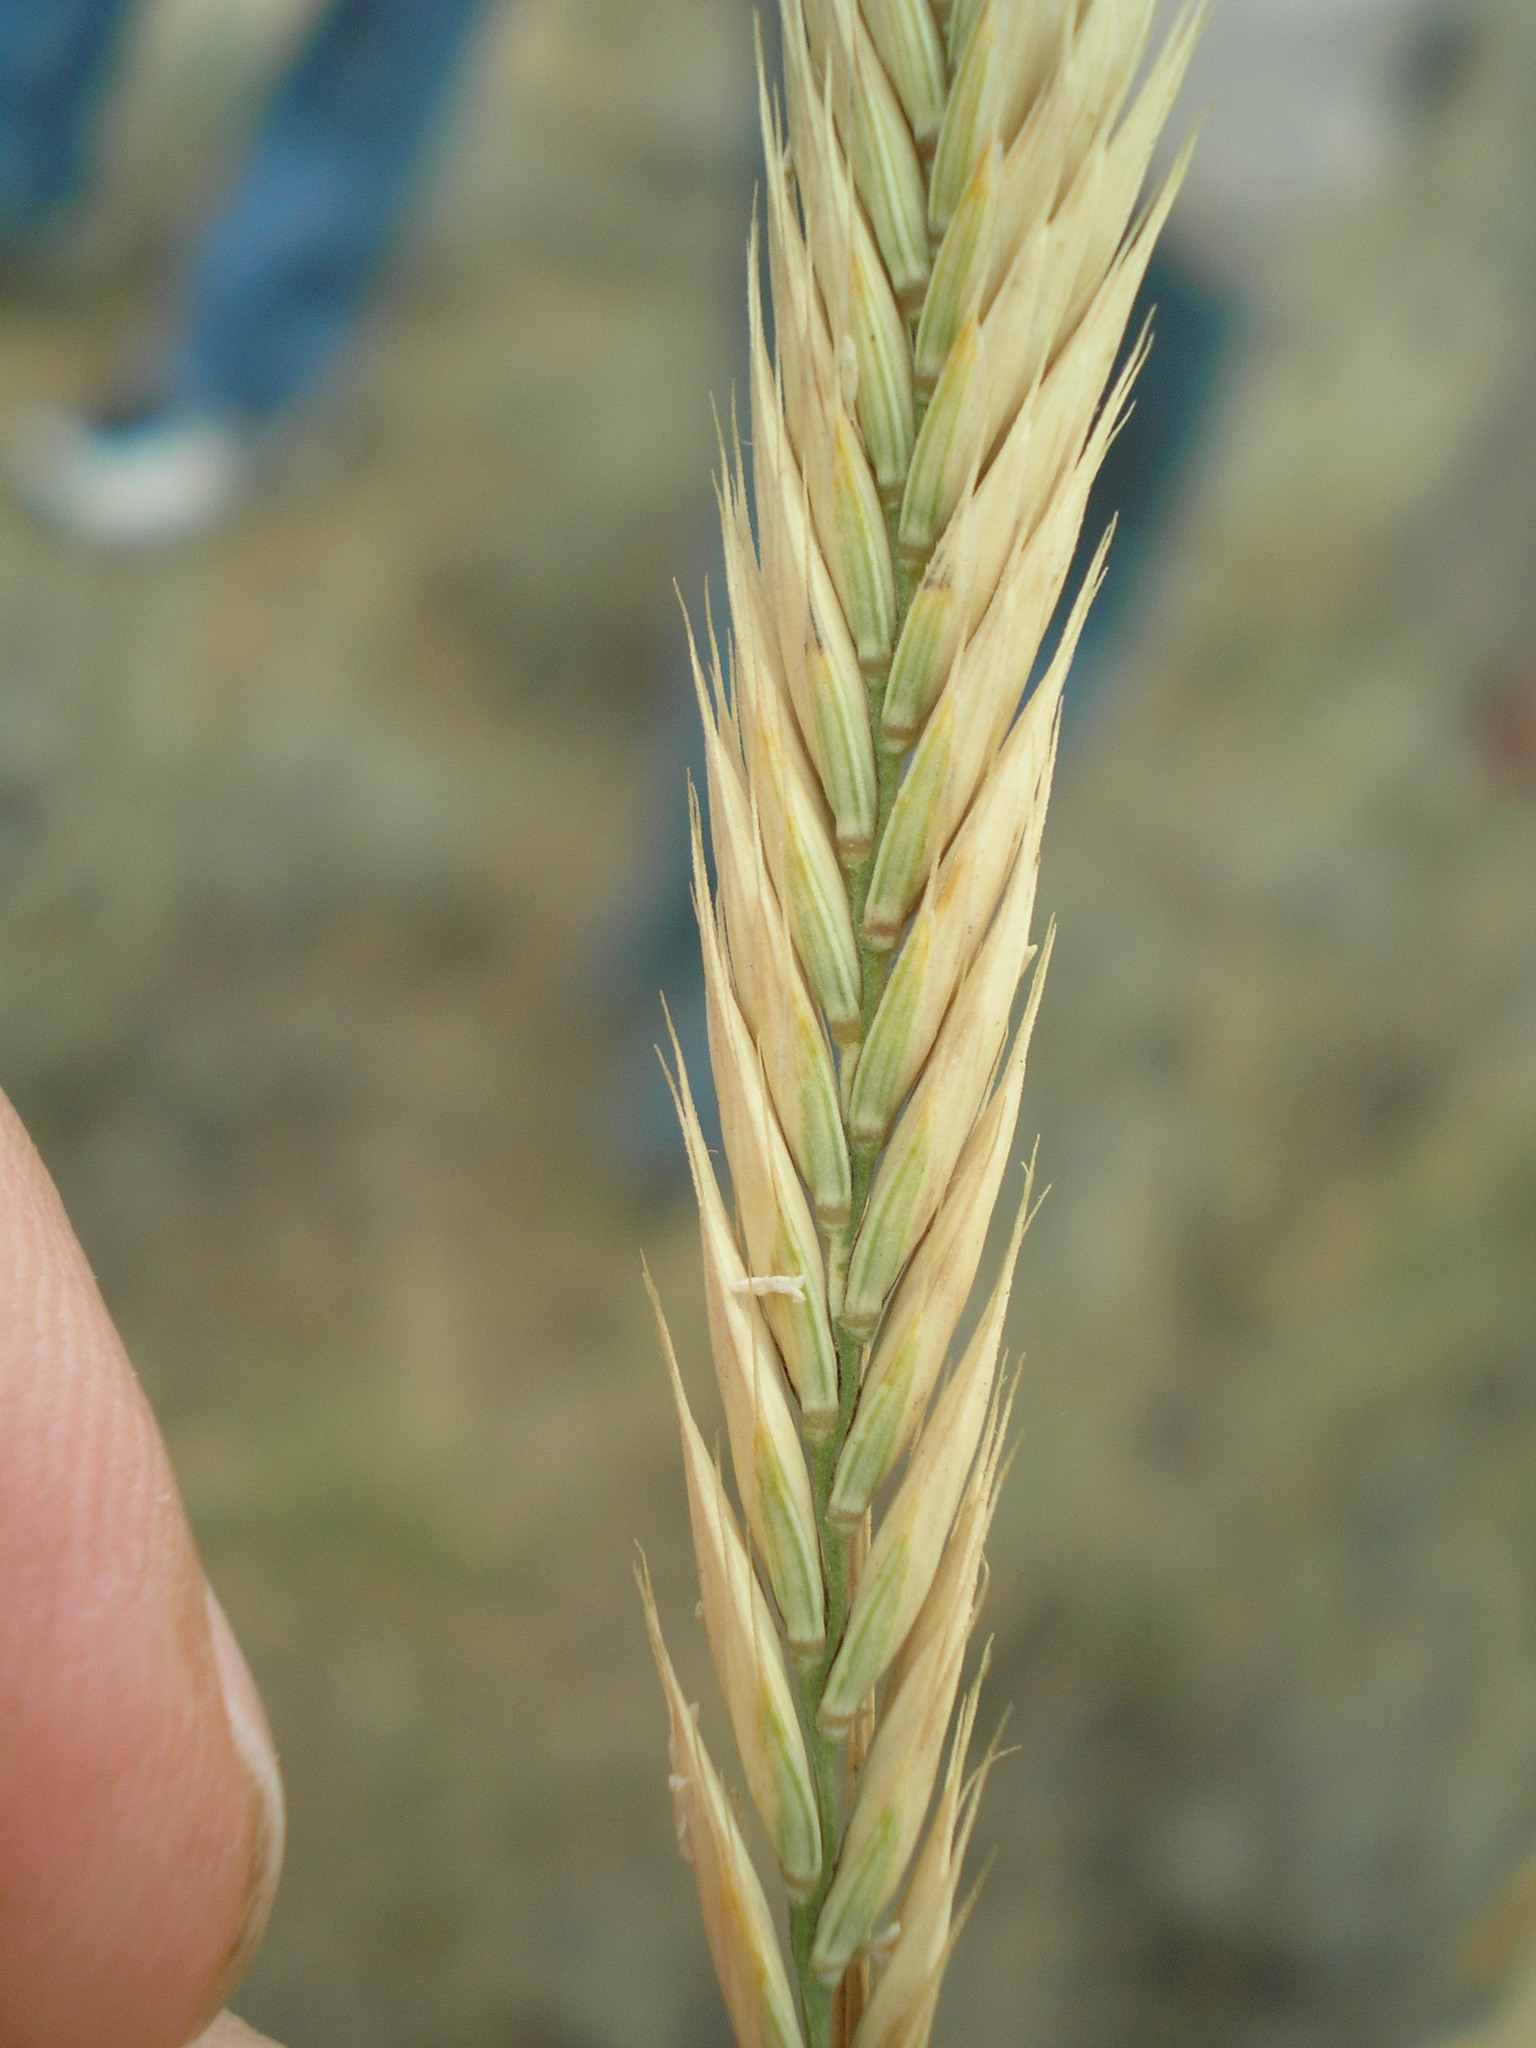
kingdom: Plantae
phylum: Tracheophyta
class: Liliopsida
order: Poales
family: Poaceae
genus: Agropyron
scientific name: Agropyron desertorum
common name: Desert wheatgrass
